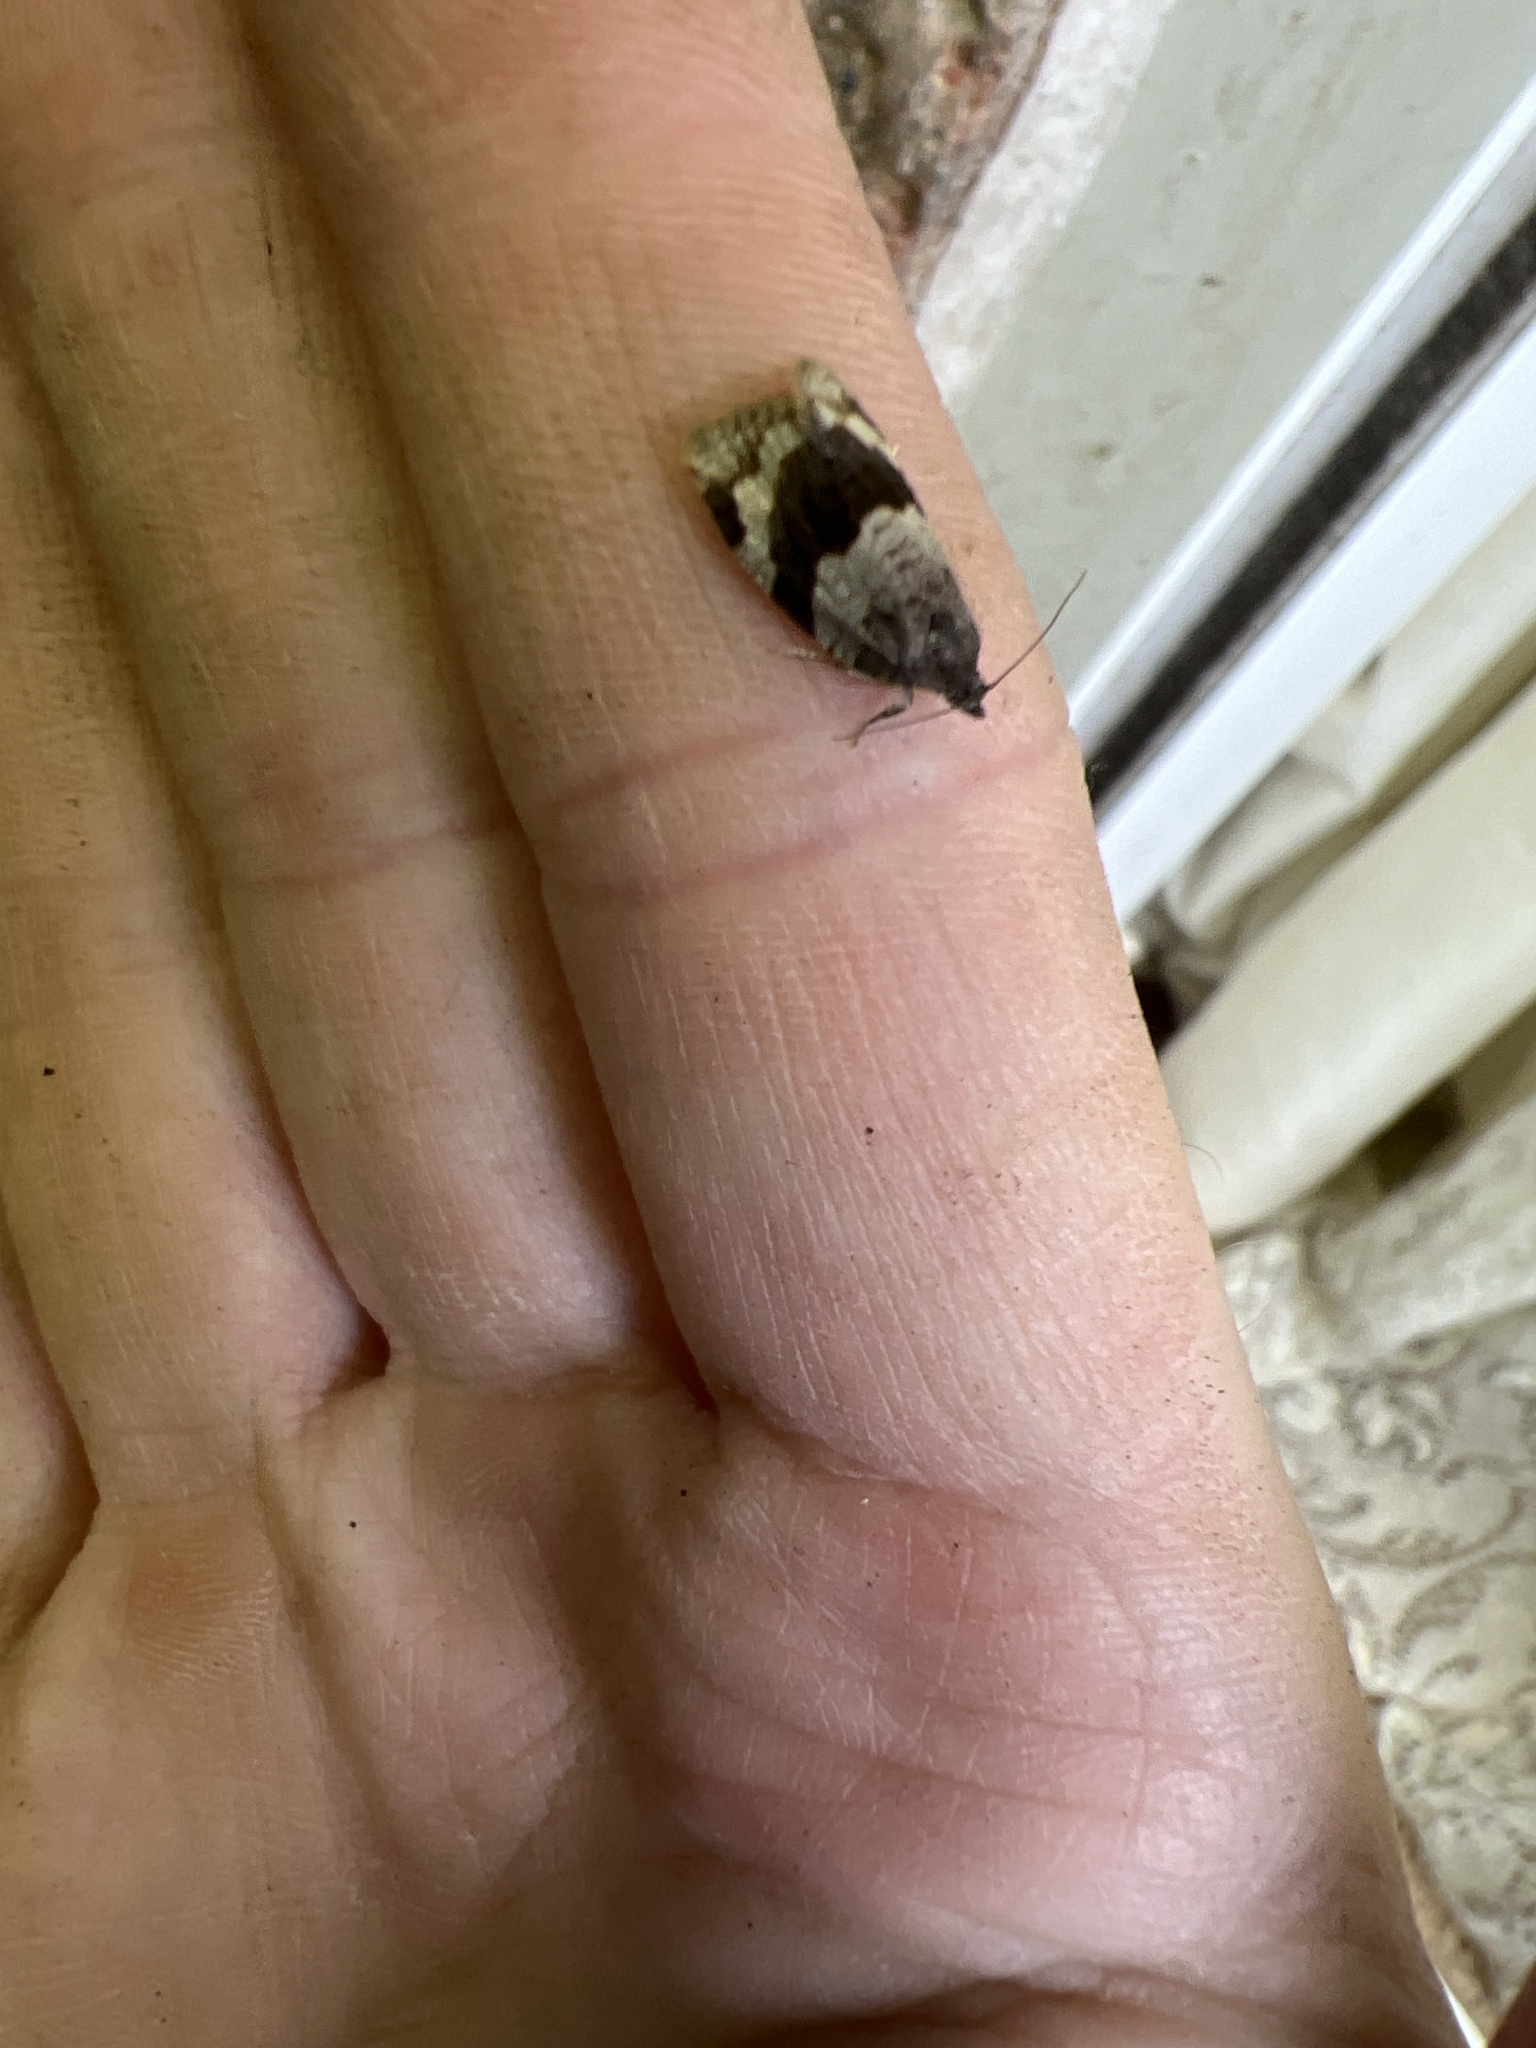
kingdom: Animalia
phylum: Arthropoda
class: Insecta
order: Lepidoptera
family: Tortricidae
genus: Syndemis
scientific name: Syndemis musculana
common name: Dark-barred twist
